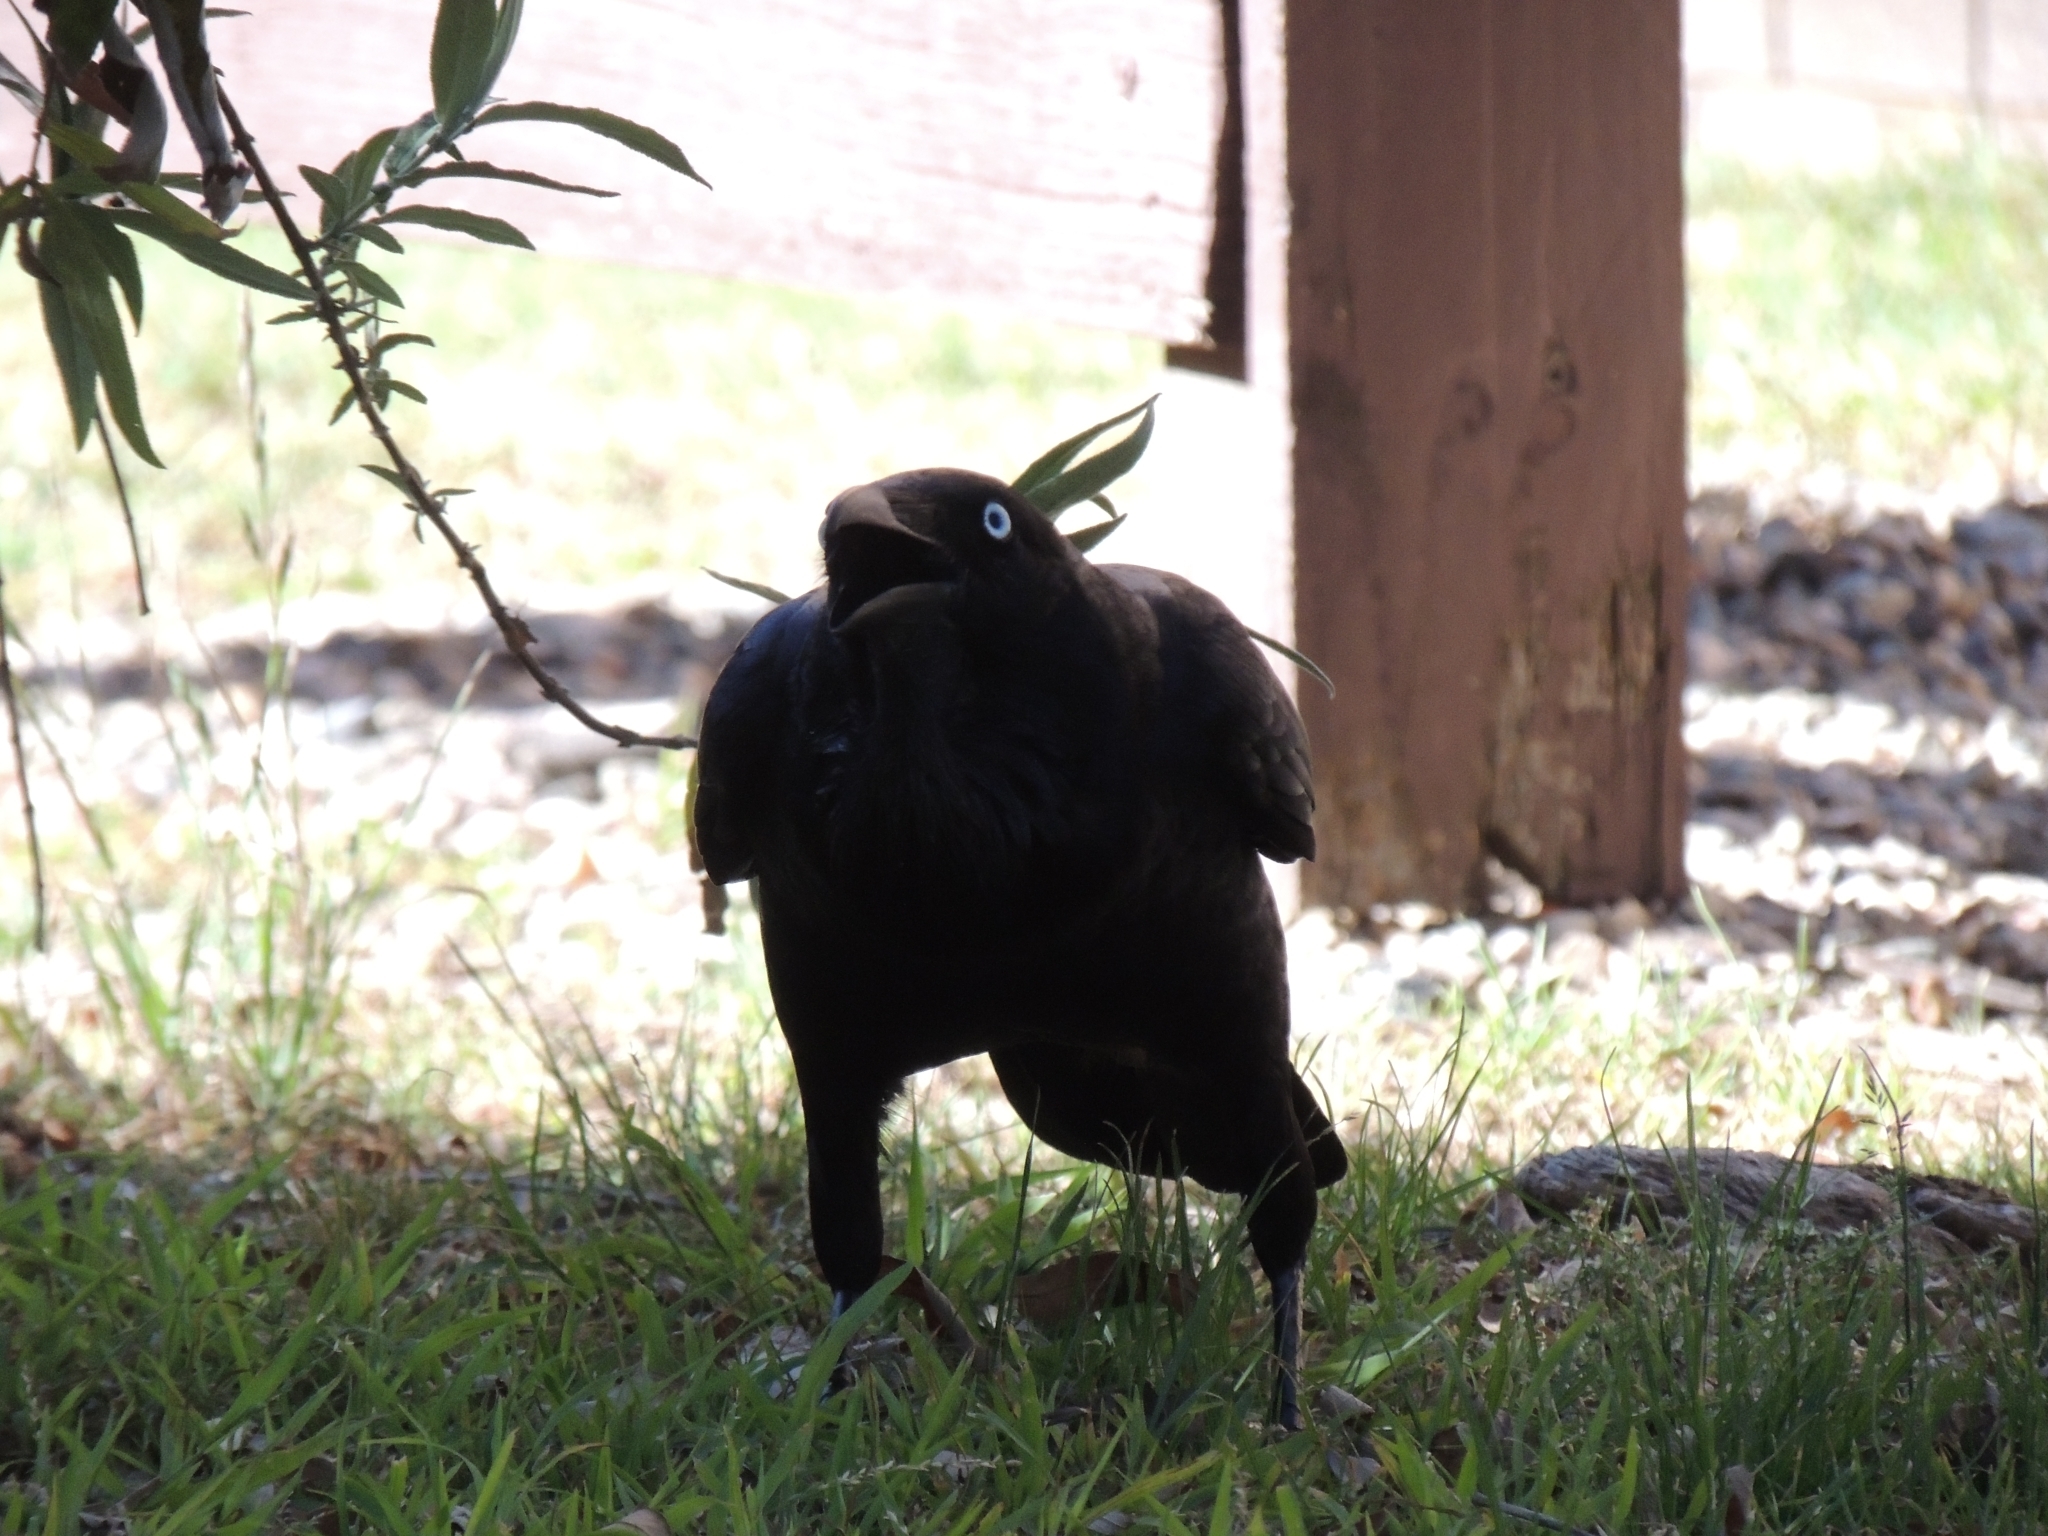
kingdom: Animalia
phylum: Chordata
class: Aves
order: Passeriformes
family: Corvidae
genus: Corvus
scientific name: Corvus coronoides
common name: Australian raven
